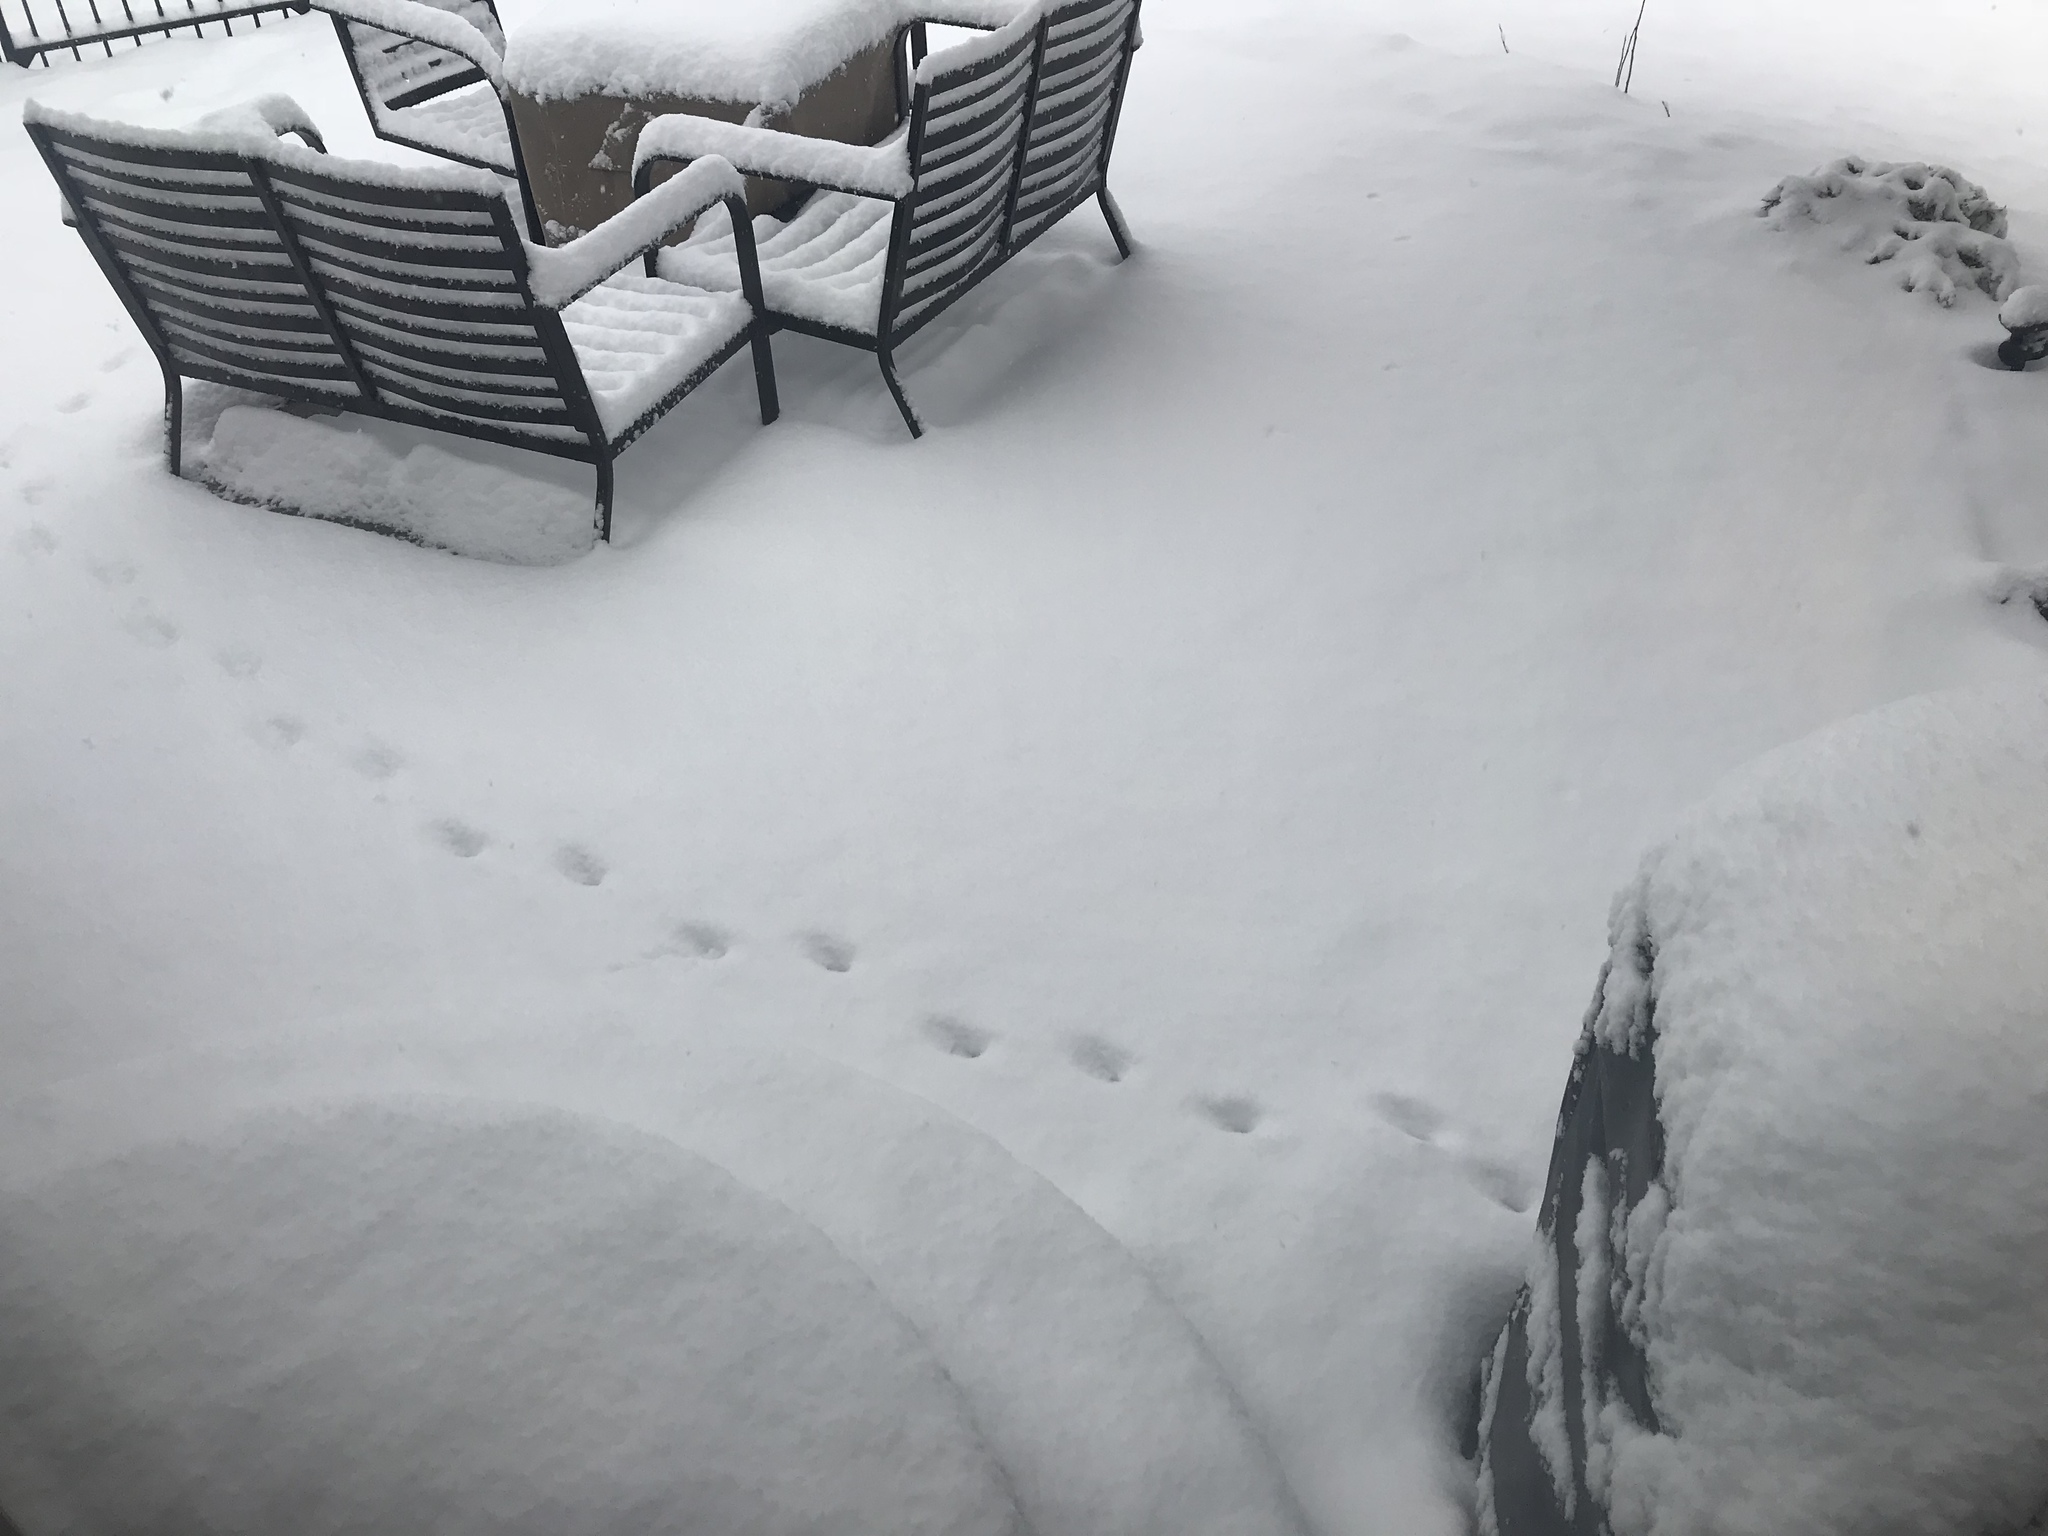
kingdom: Animalia
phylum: Chordata
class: Mammalia
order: Artiodactyla
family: Cervidae
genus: Odocoileus
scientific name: Odocoileus virginianus
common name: White-tailed deer
